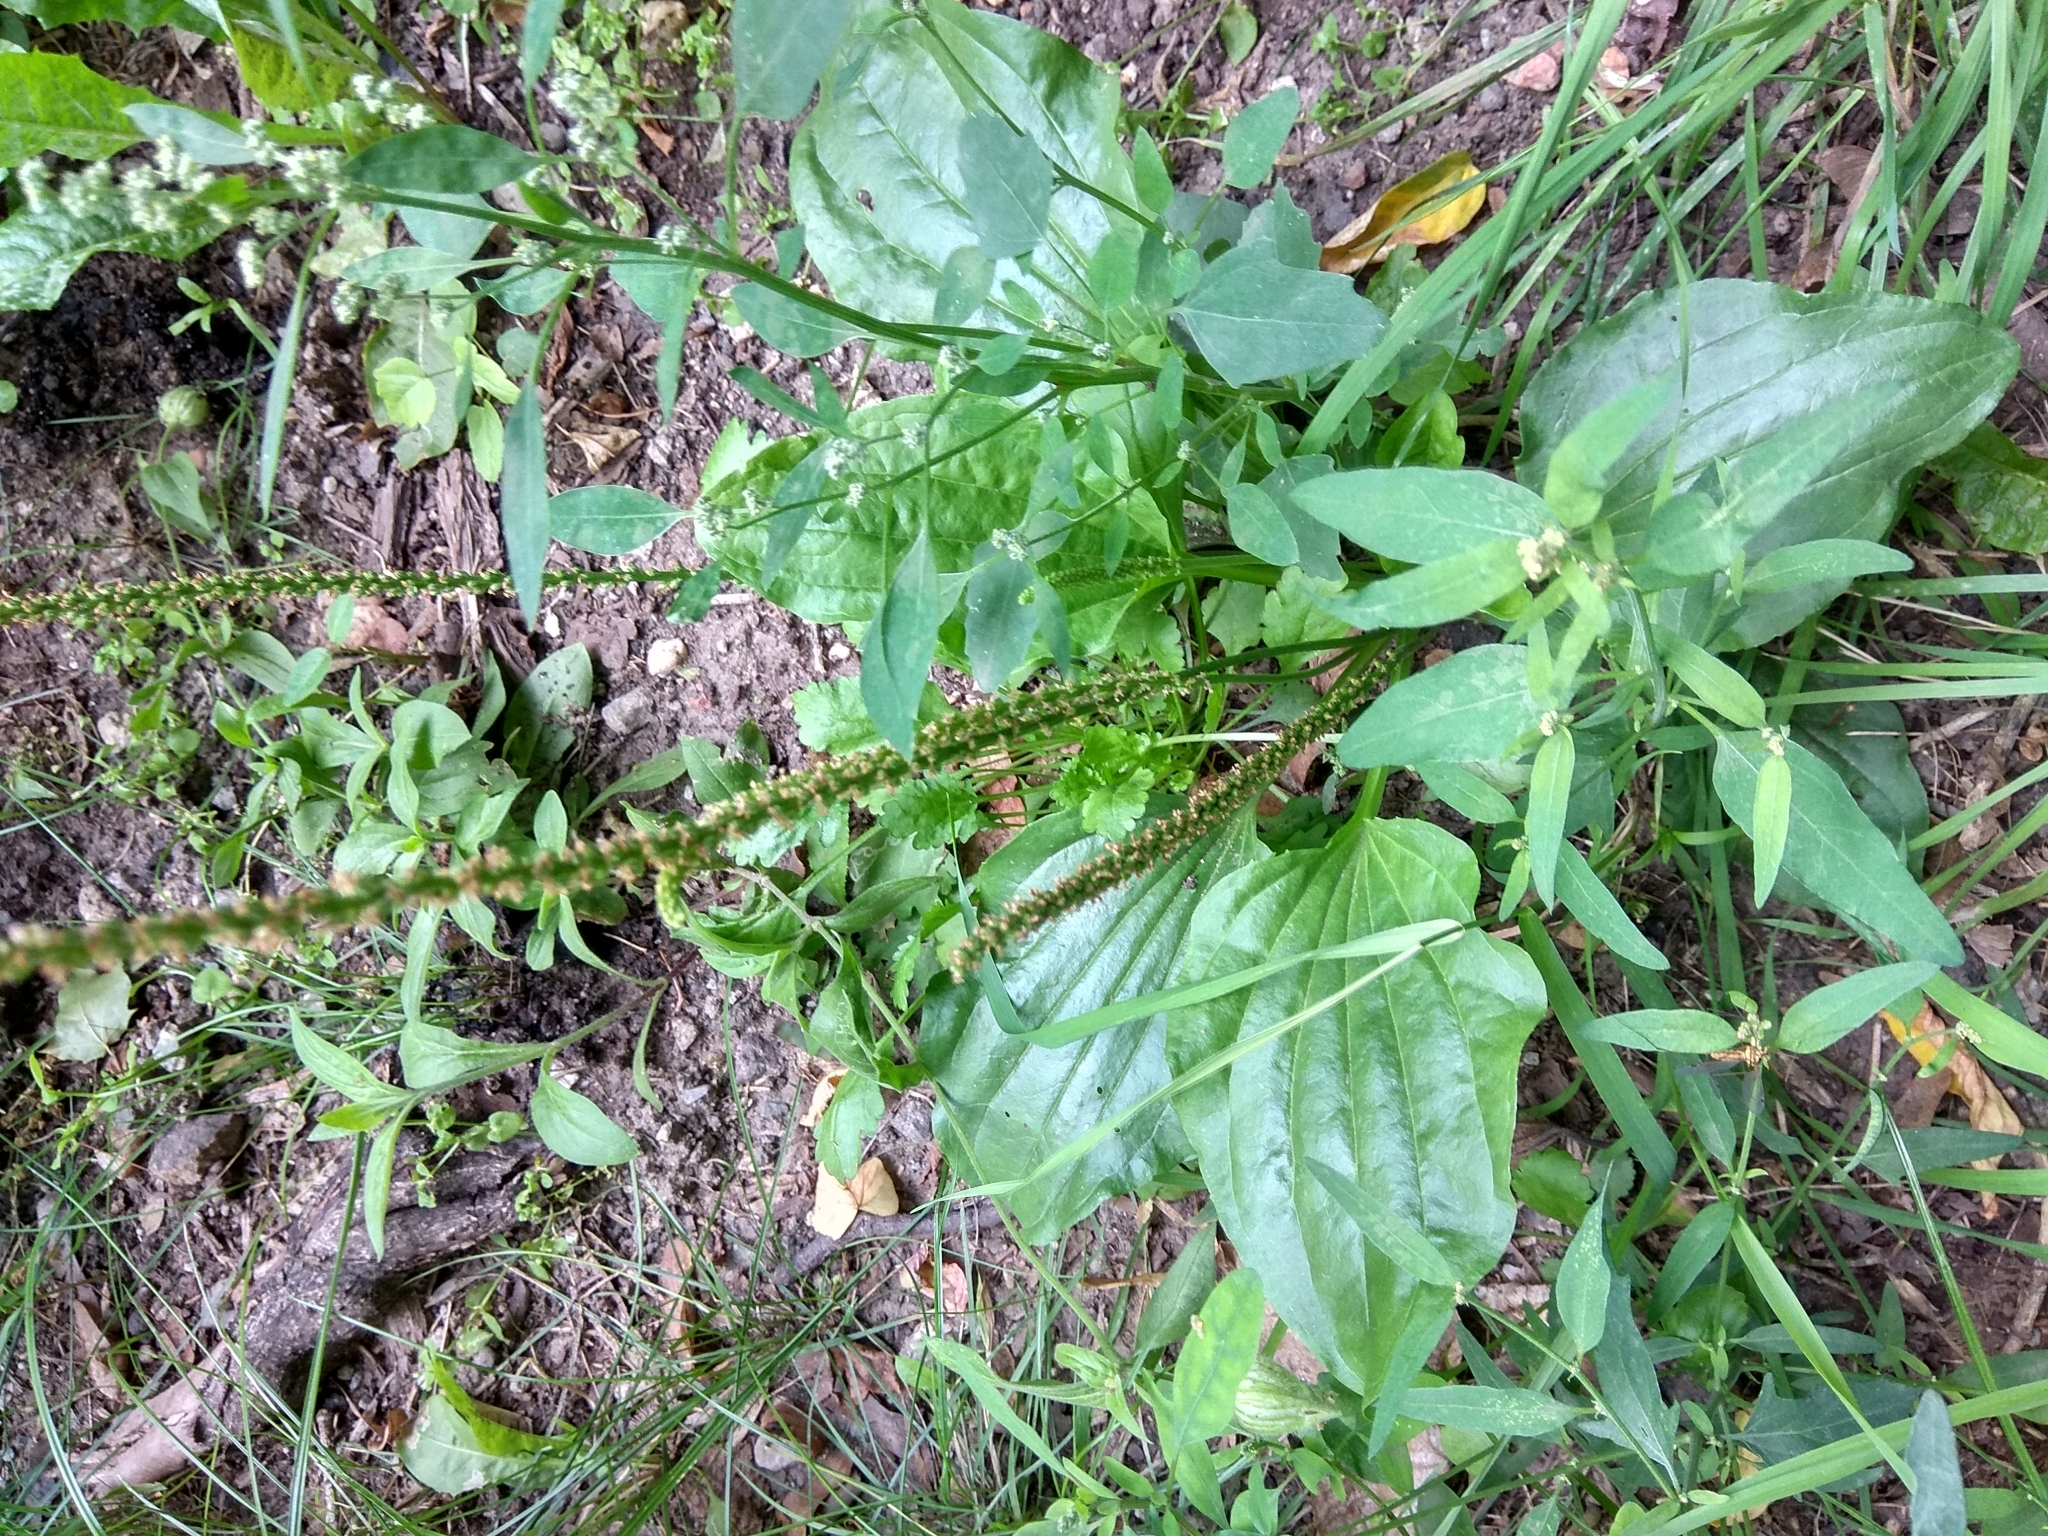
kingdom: Plantae
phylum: Tracheophyta
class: Magnoliopsida
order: Lamiales
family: Plantaginaceae
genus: Plantago
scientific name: Plantago major
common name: Common plantain
